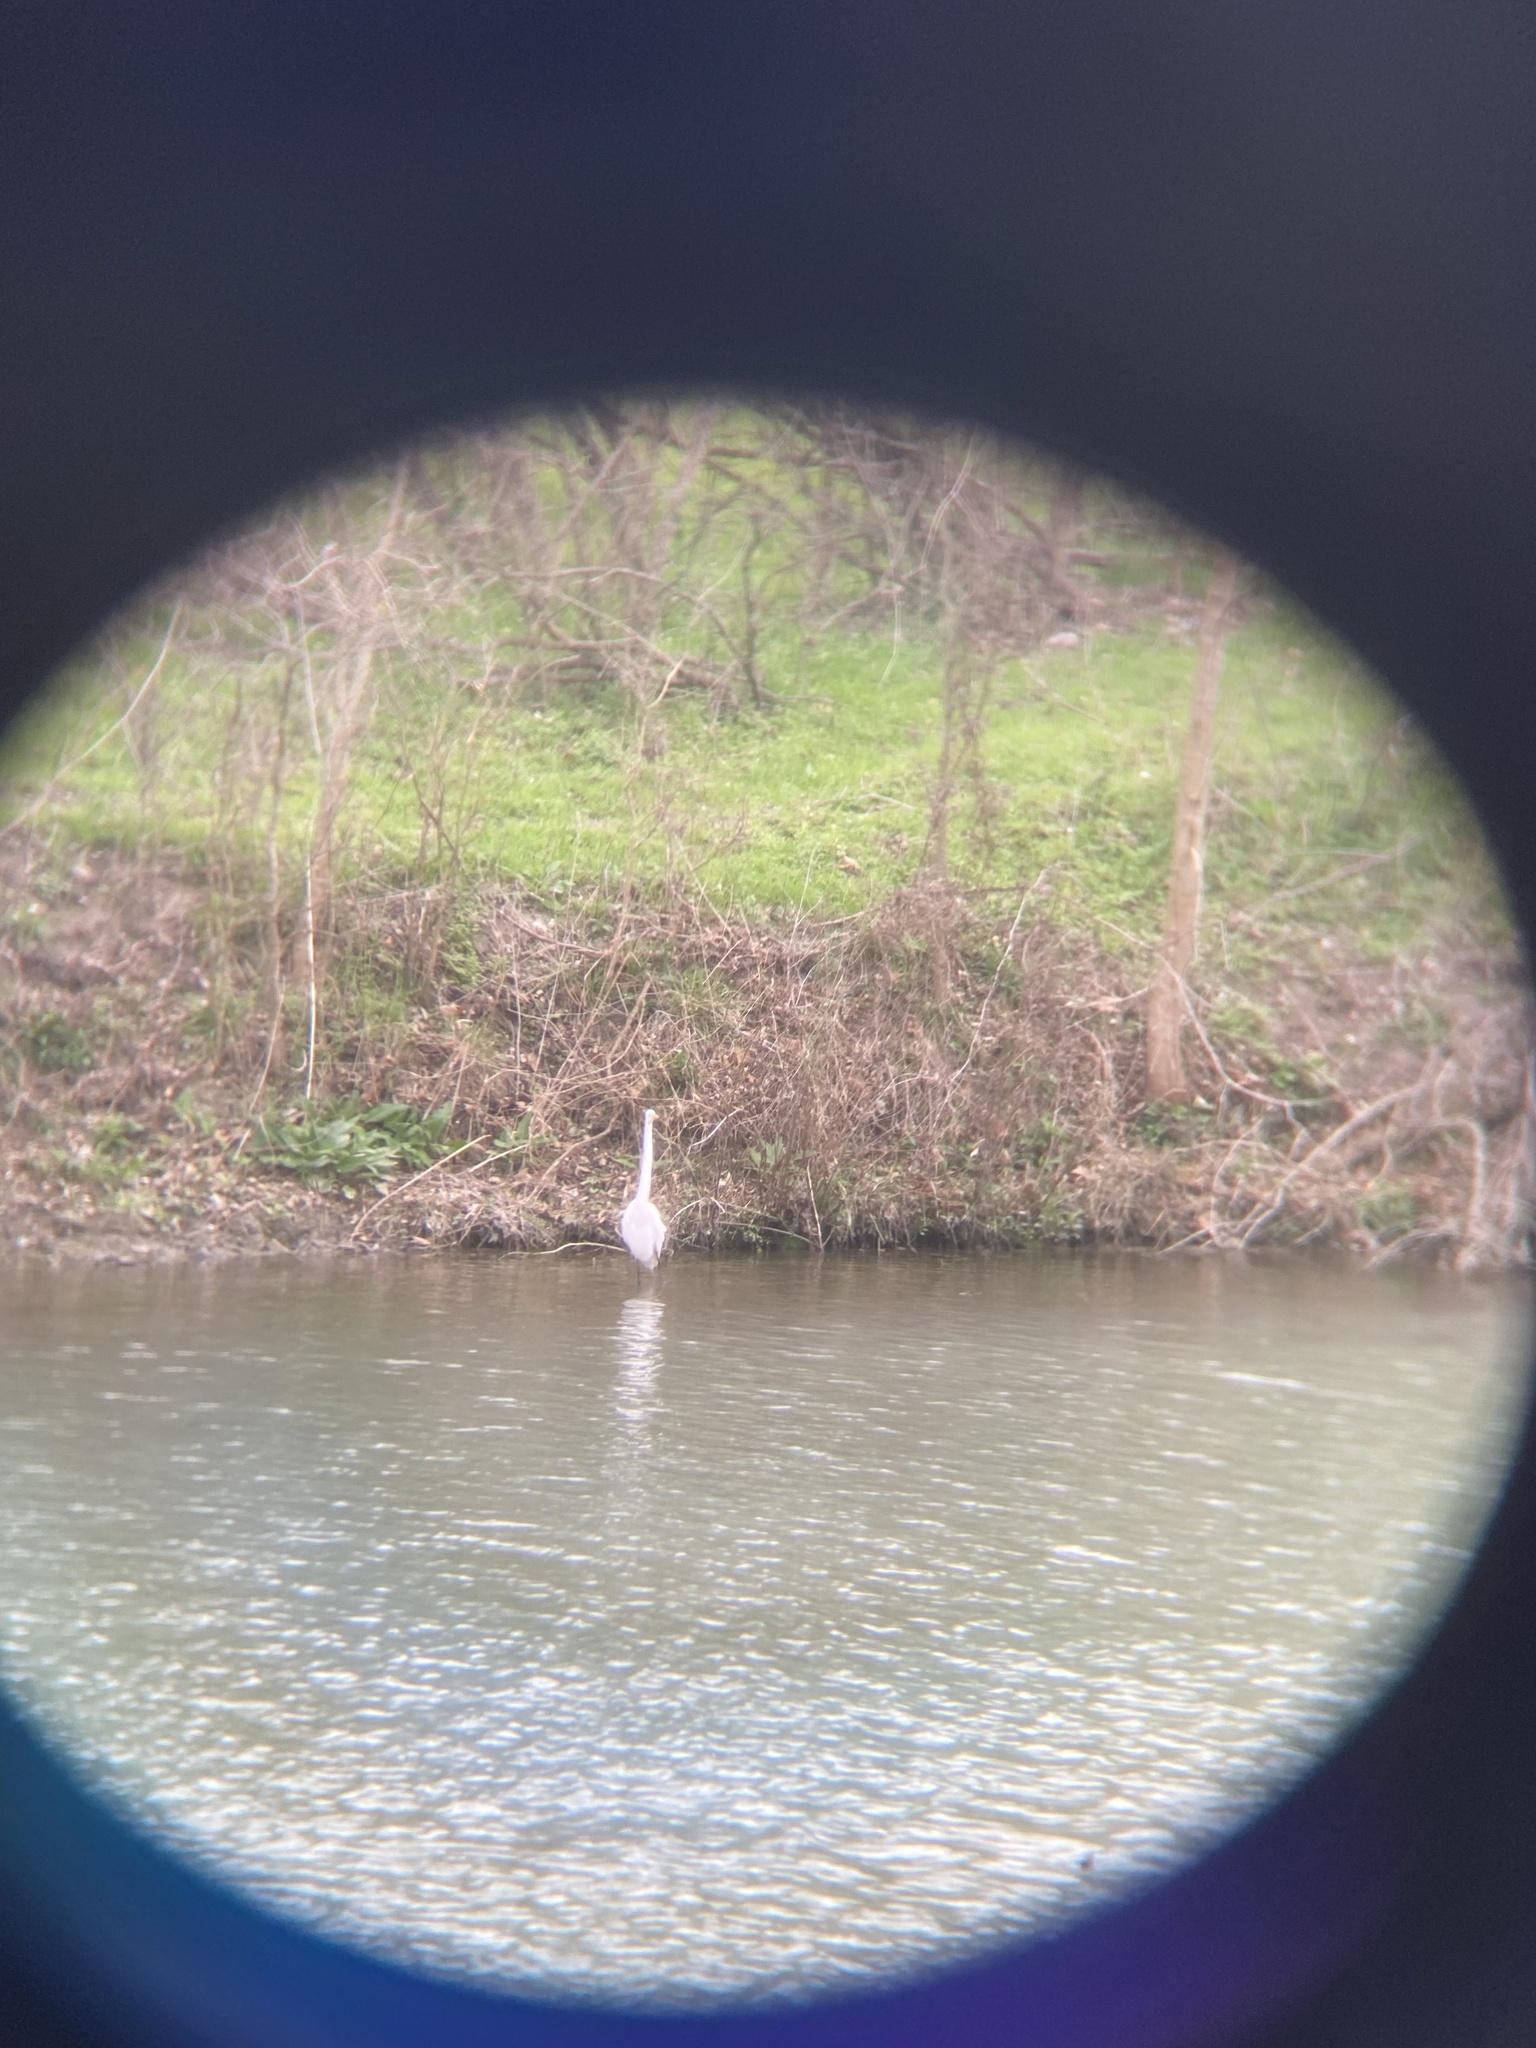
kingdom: Animalia
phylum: Chordata
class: Aves
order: Pelecaniformes
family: Ardeidae
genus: Ardea
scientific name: Ardea alba
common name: Great egret
